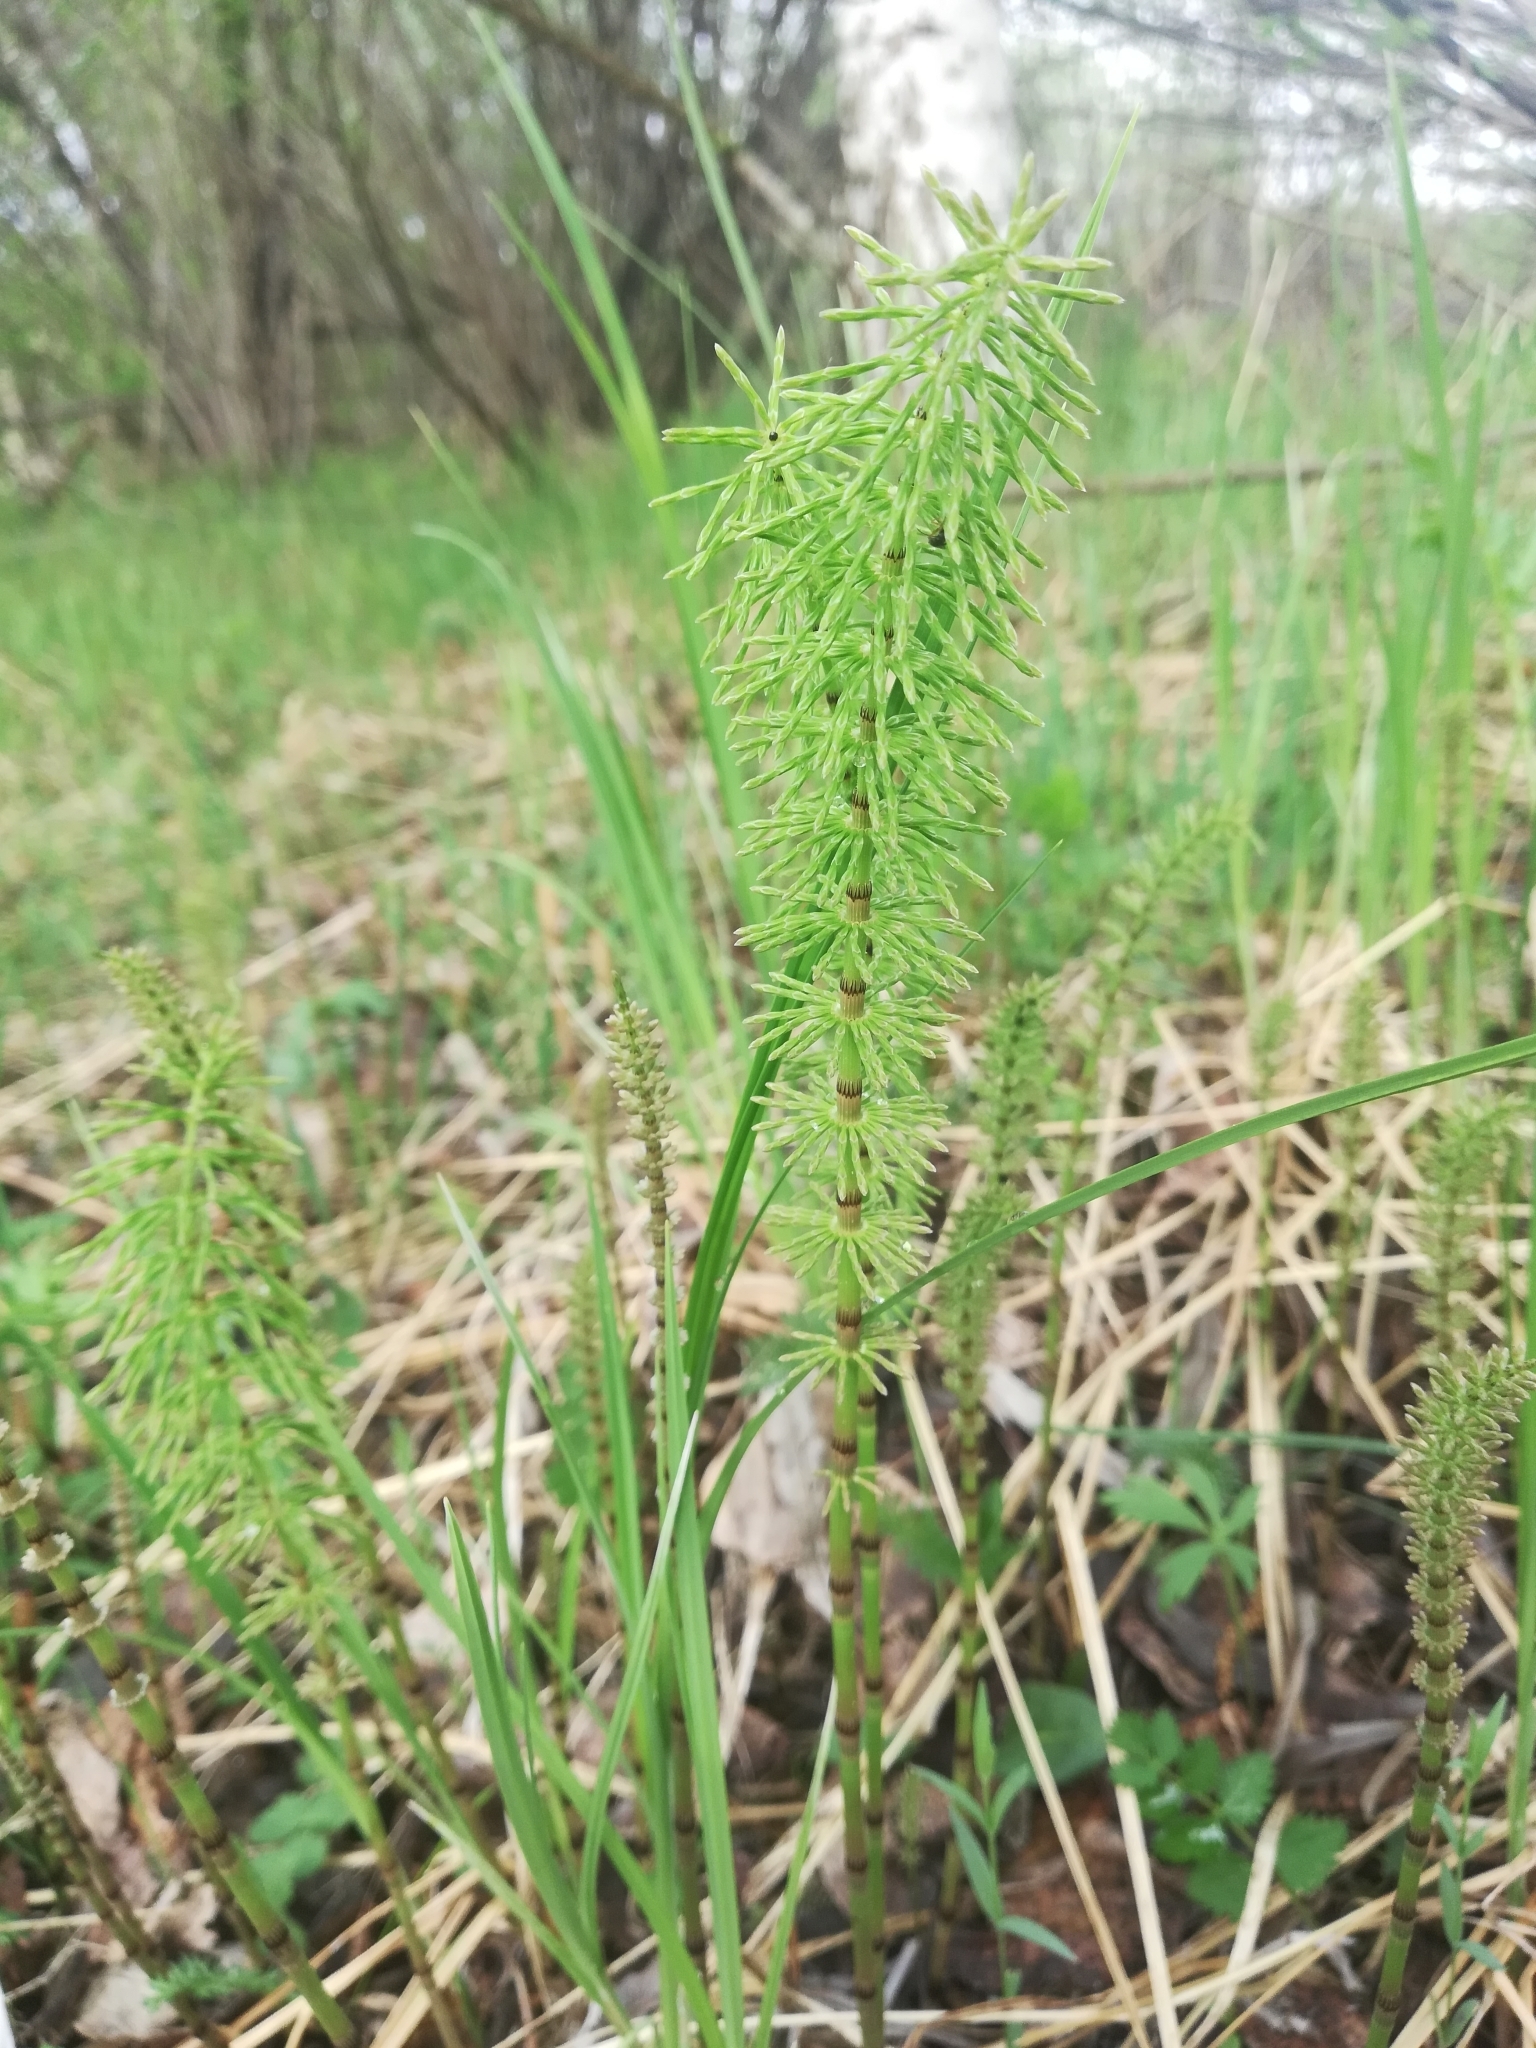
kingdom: Plantae
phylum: Tracheophyta
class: Polypodiopsida
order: Equisetales
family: Equisetaceae
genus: Equisetum
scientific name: Equisetum pratense
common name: Meadow horsetail
